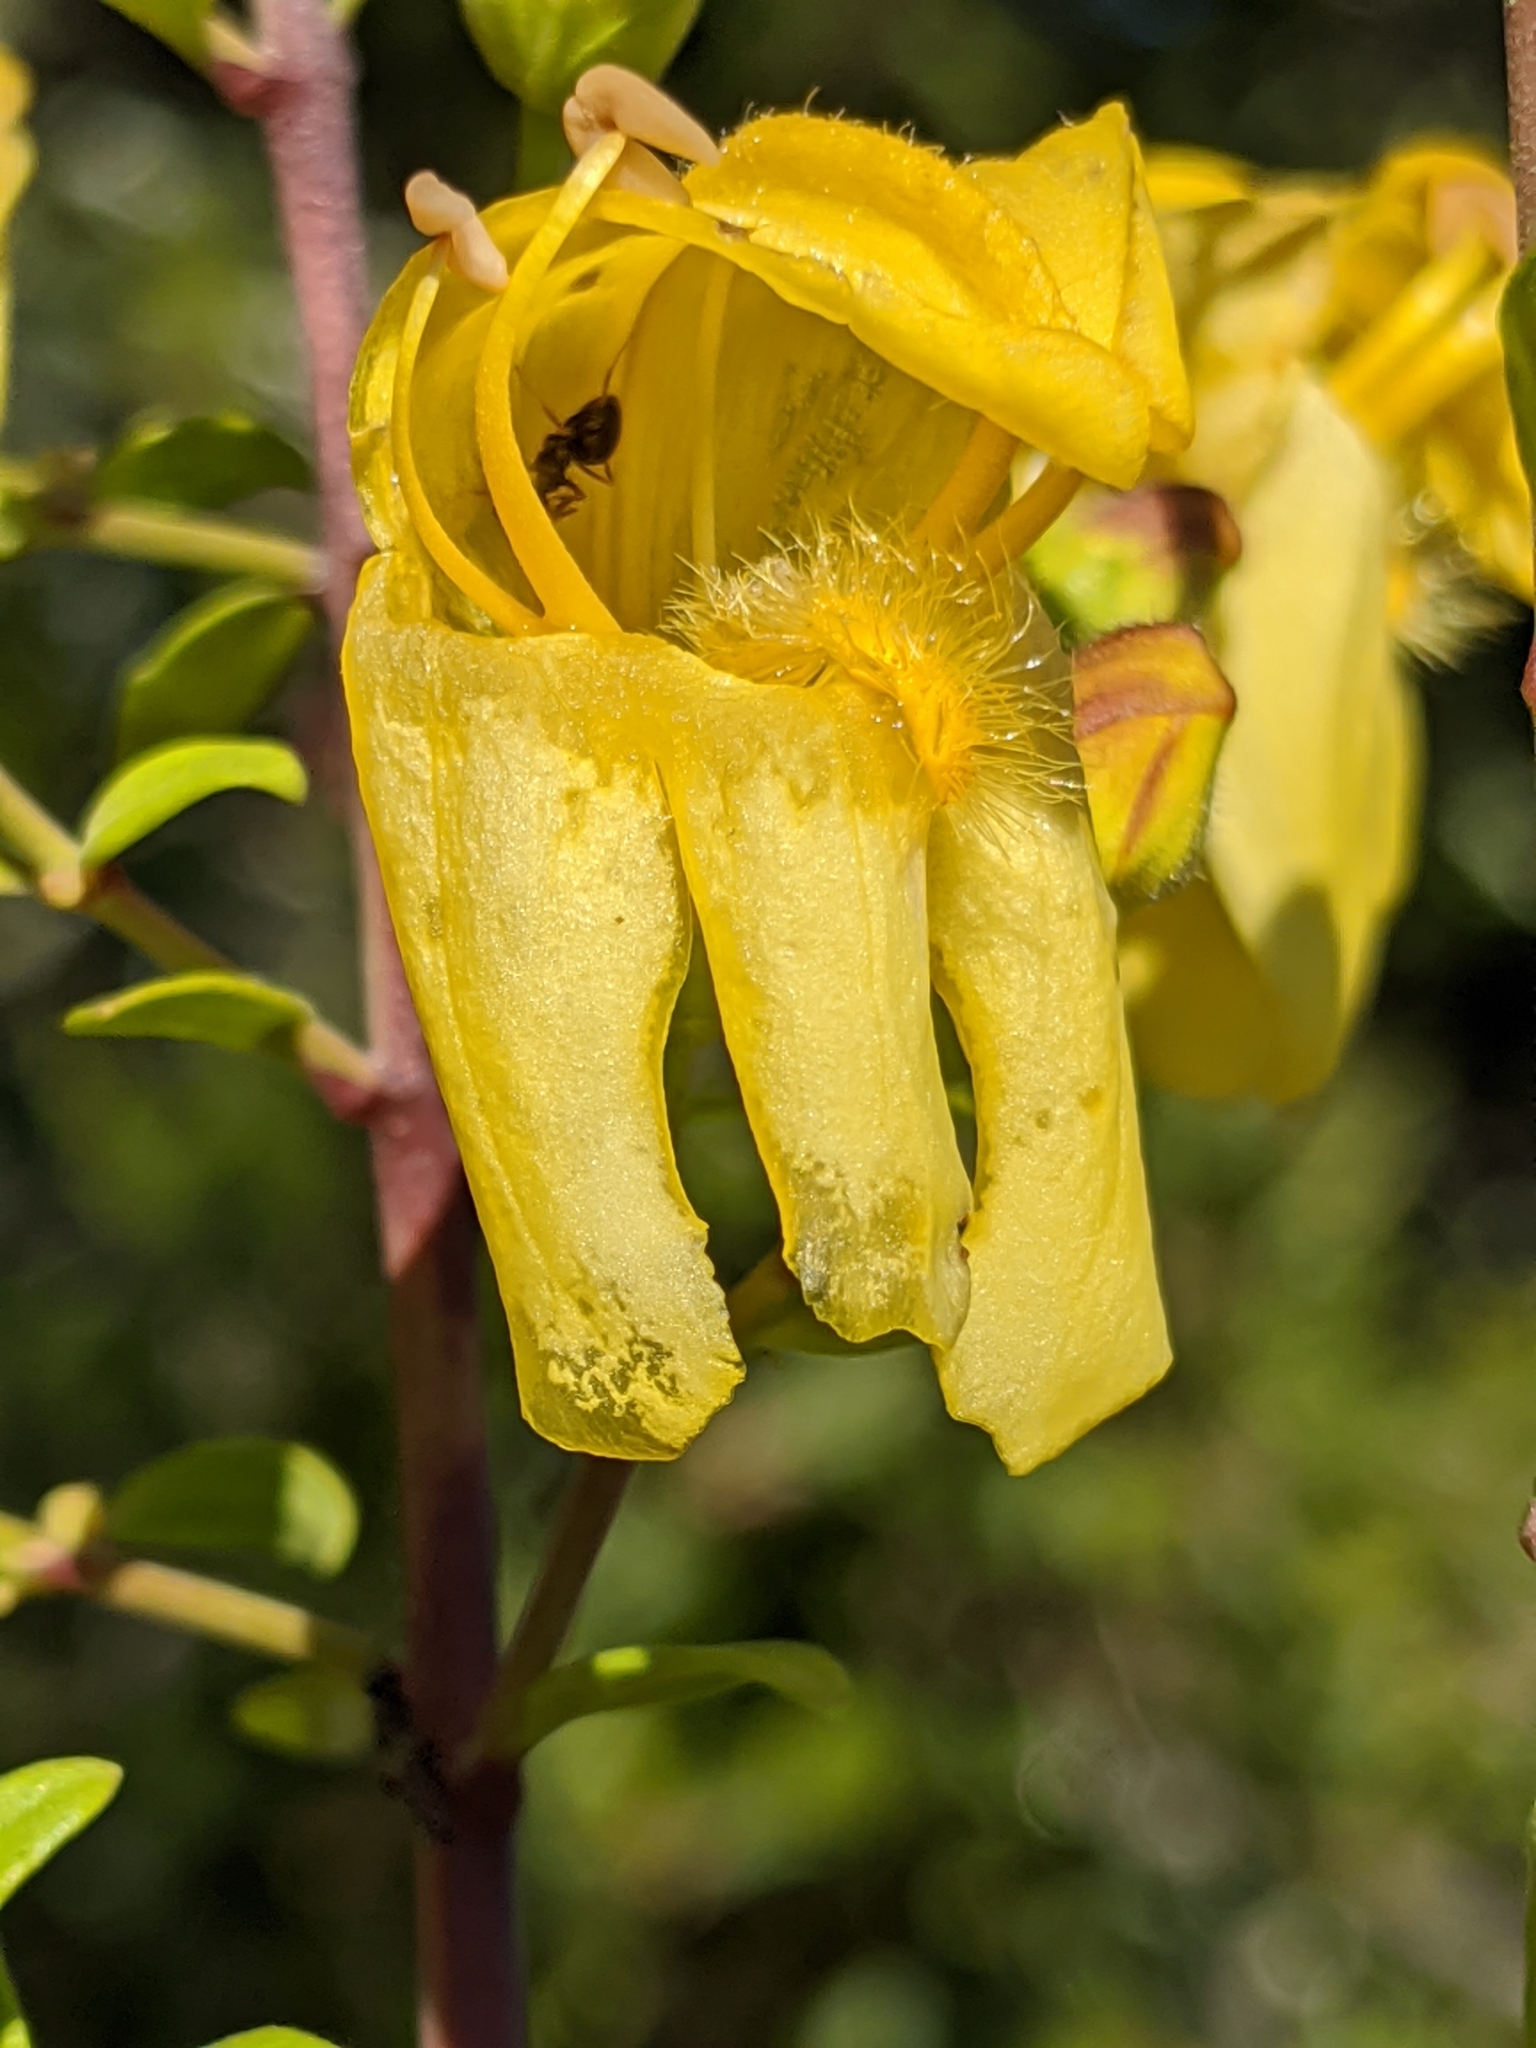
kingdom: Plantae
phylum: Tracheophyta
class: Magnoliopsida
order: Lamiales
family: Plantaginaceae
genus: Keckiella
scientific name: Keckiella antirrhinoides
